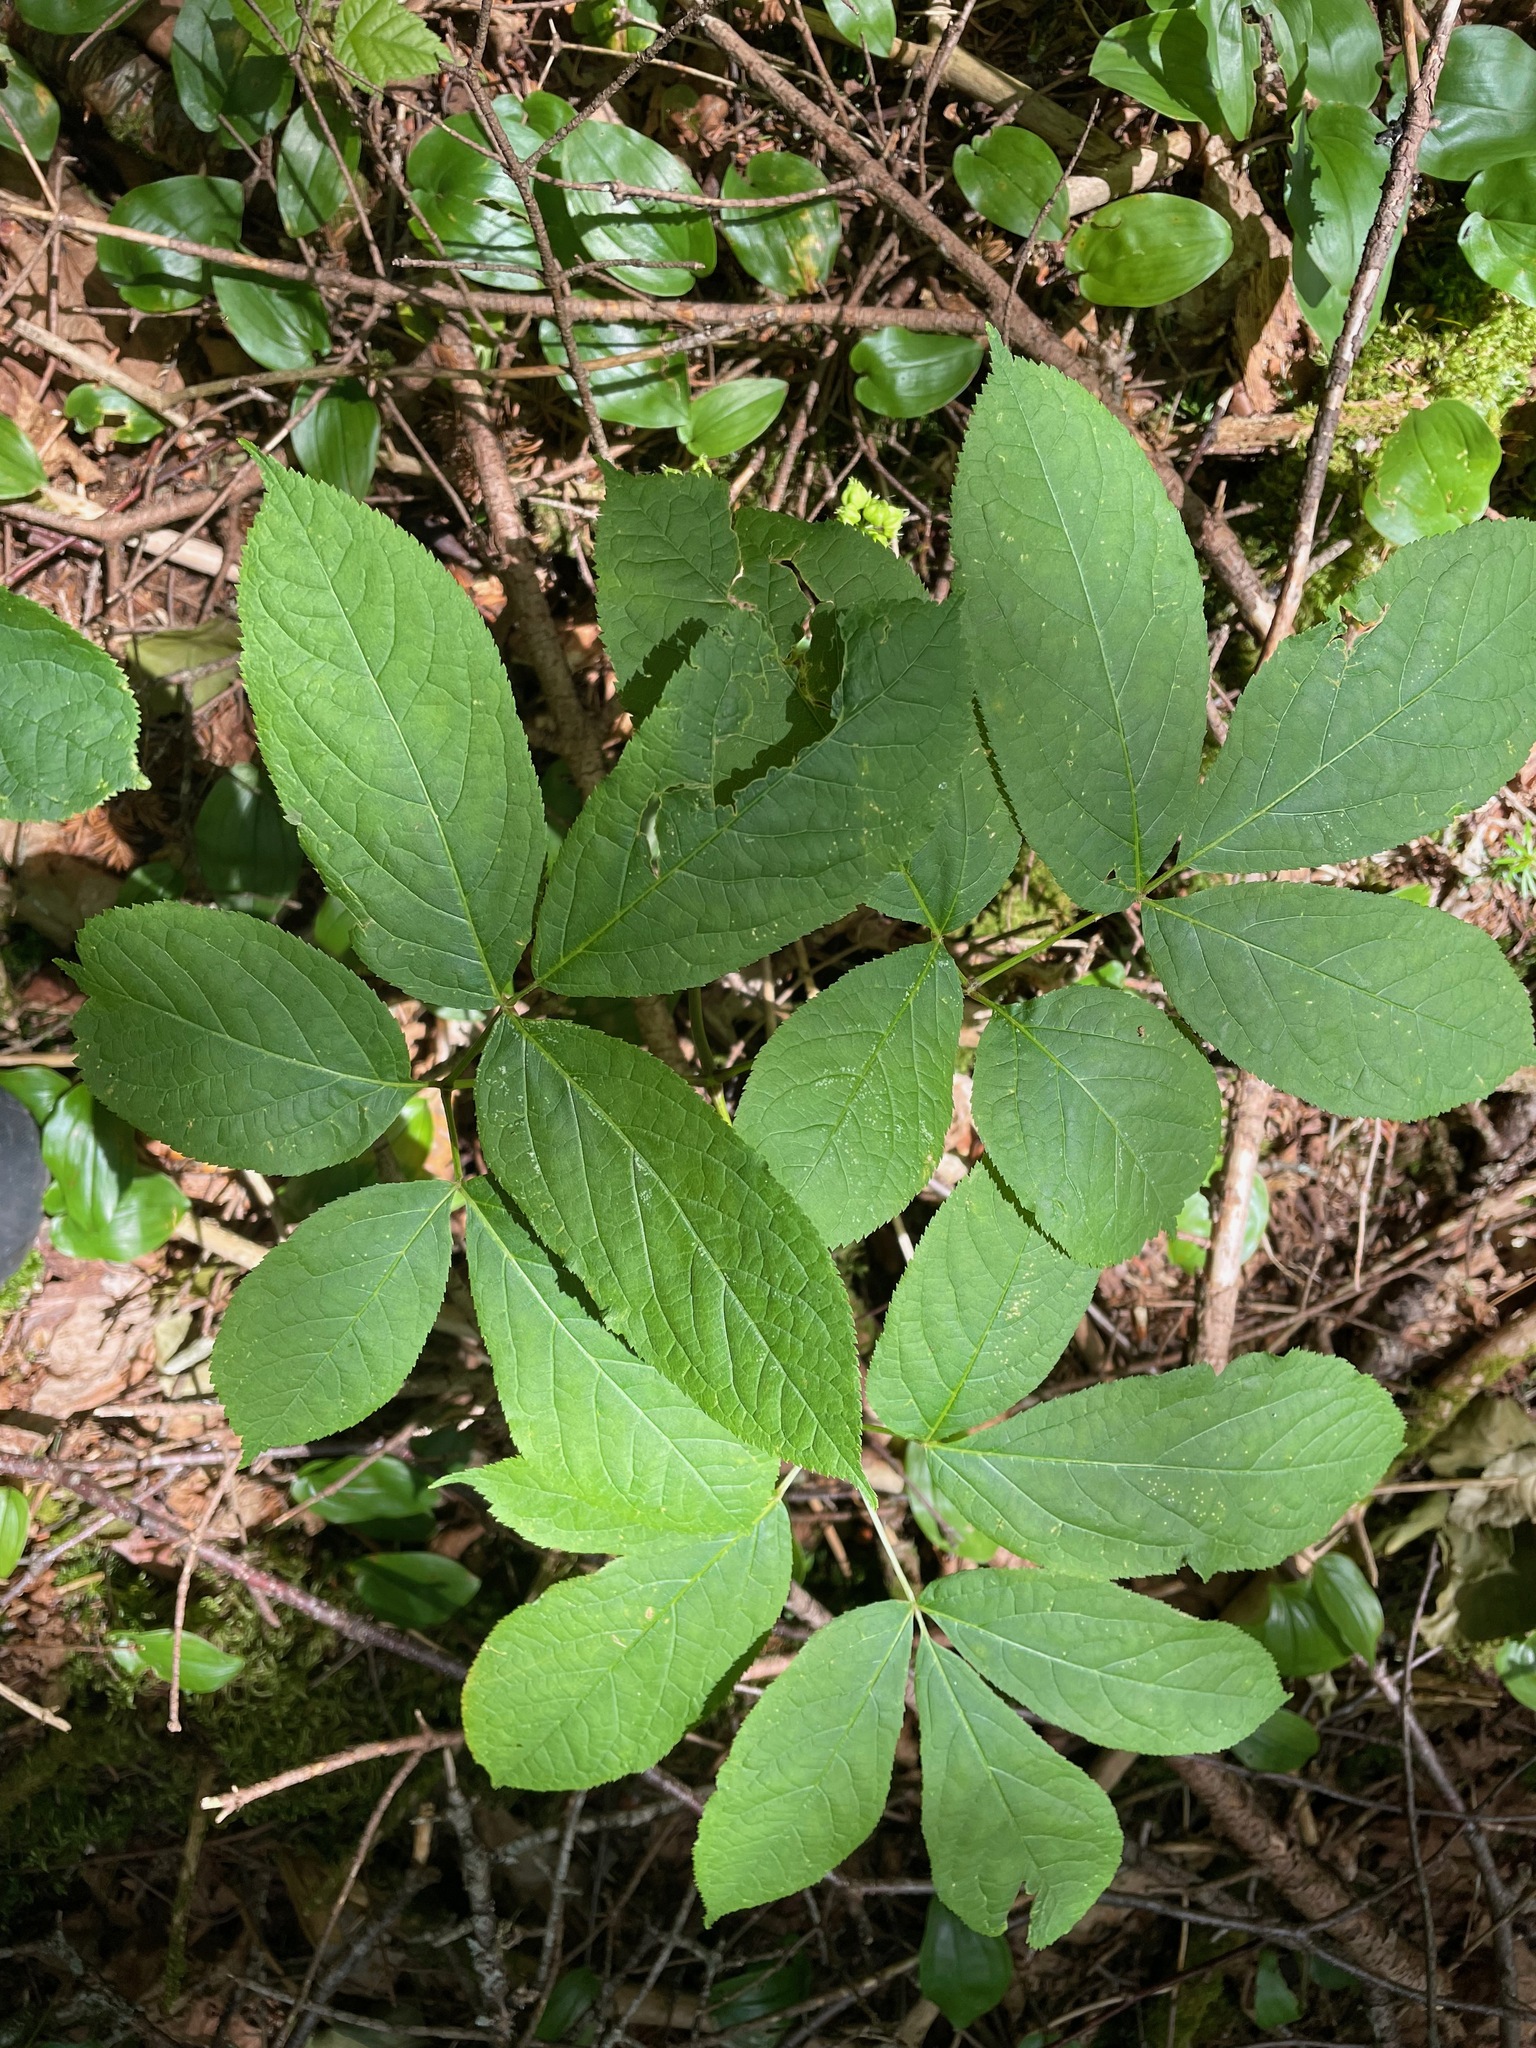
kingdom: Plantae
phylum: Tracheophyta
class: Magnoliopsida
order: Apiales
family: Araliaceae
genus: Aralia
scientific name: Aralia nudicaulis
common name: Wild sarsaparilla
